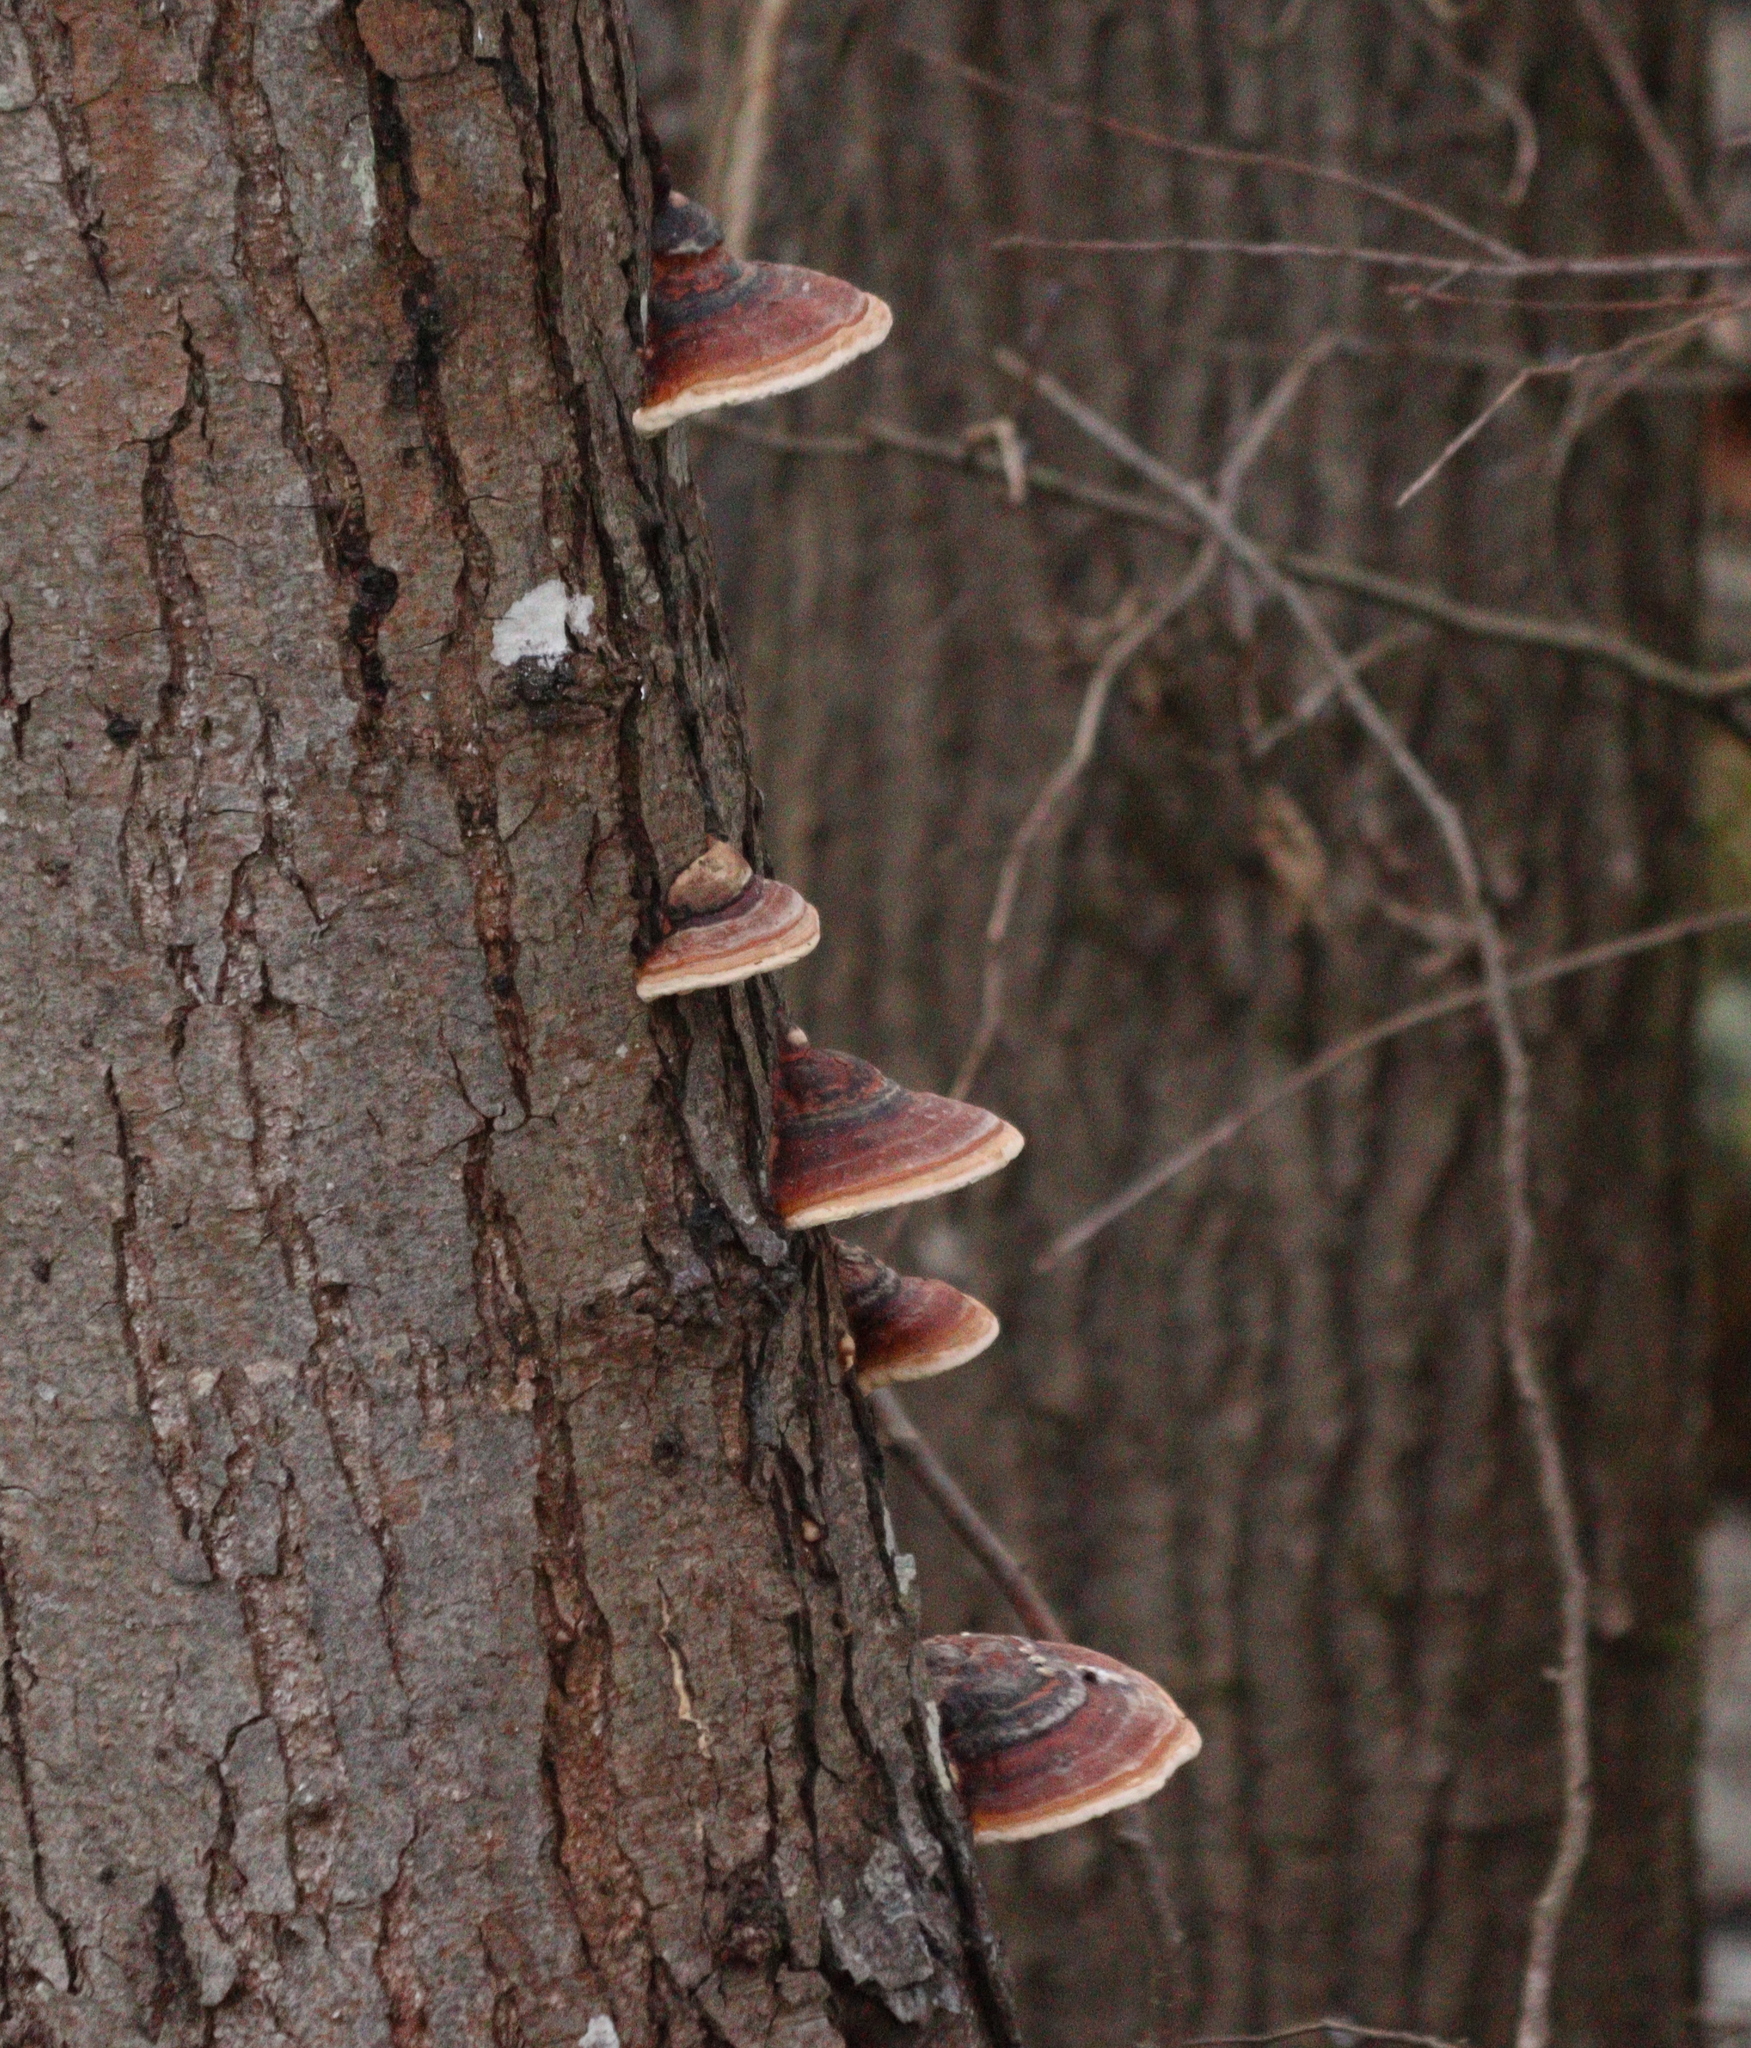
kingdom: Fungi
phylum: Basidiomycota
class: Agaricomycetes
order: Polyporales
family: Fomitopsidaceae
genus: Fomitopsis
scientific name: Fomitopsis pinicola
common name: Red-belted bracket
